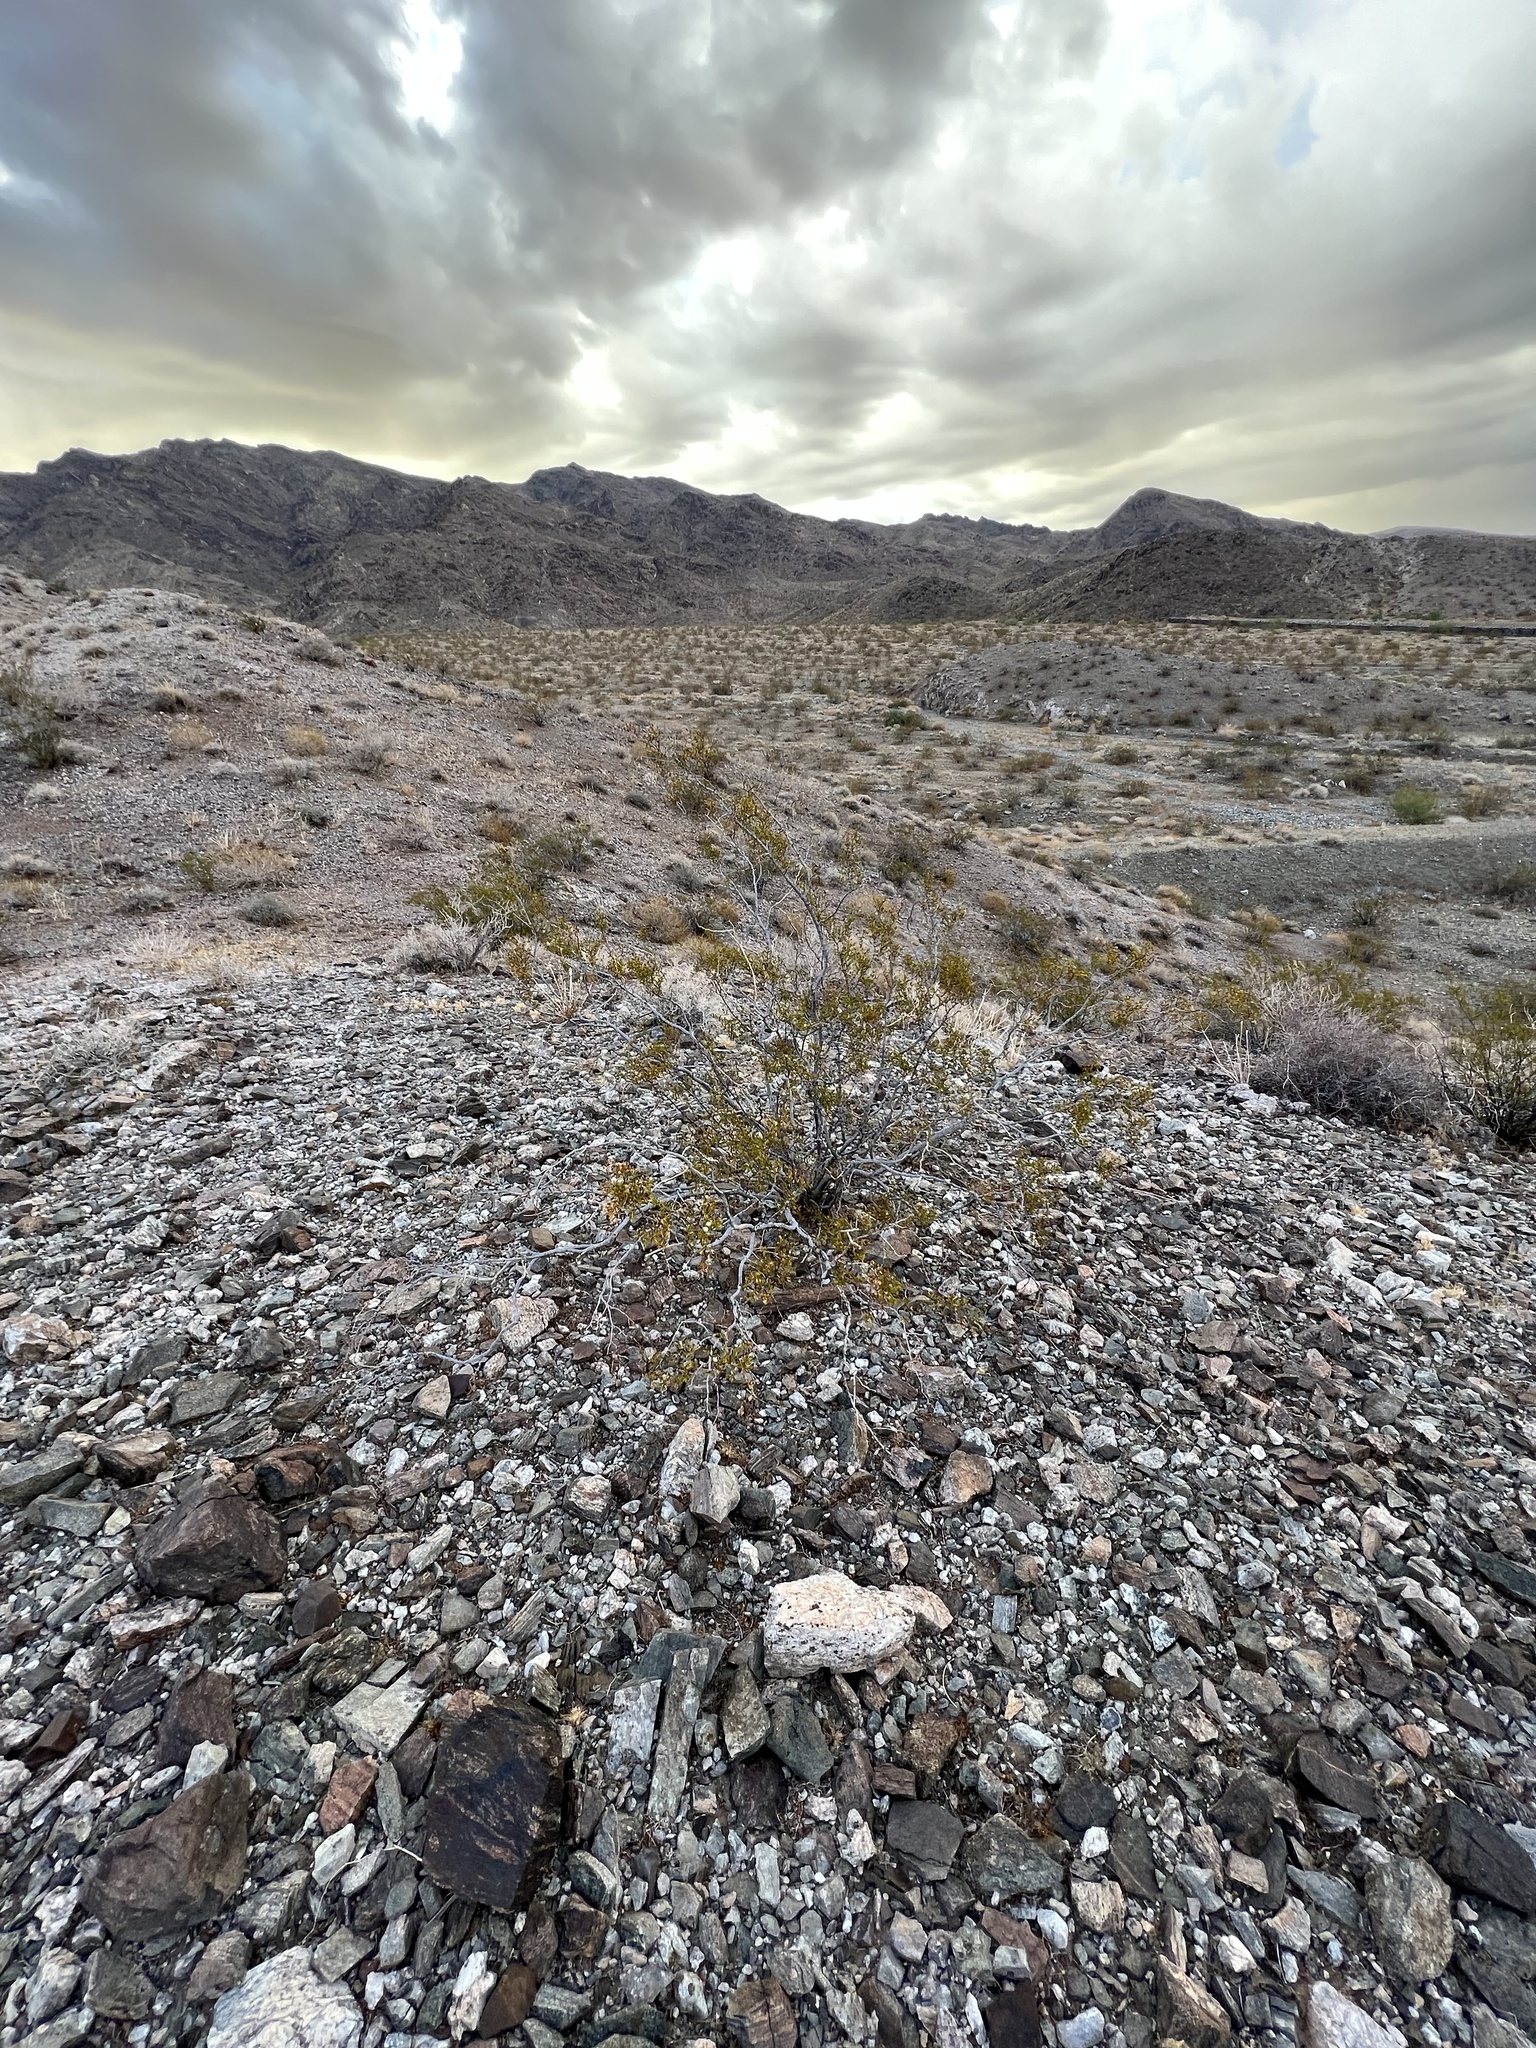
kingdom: Plantae
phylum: Tracheophyta
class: Magnoliopsida
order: Zygophyllales
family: Zygophyllaceae
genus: Larrea
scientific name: Larrea tridentata
